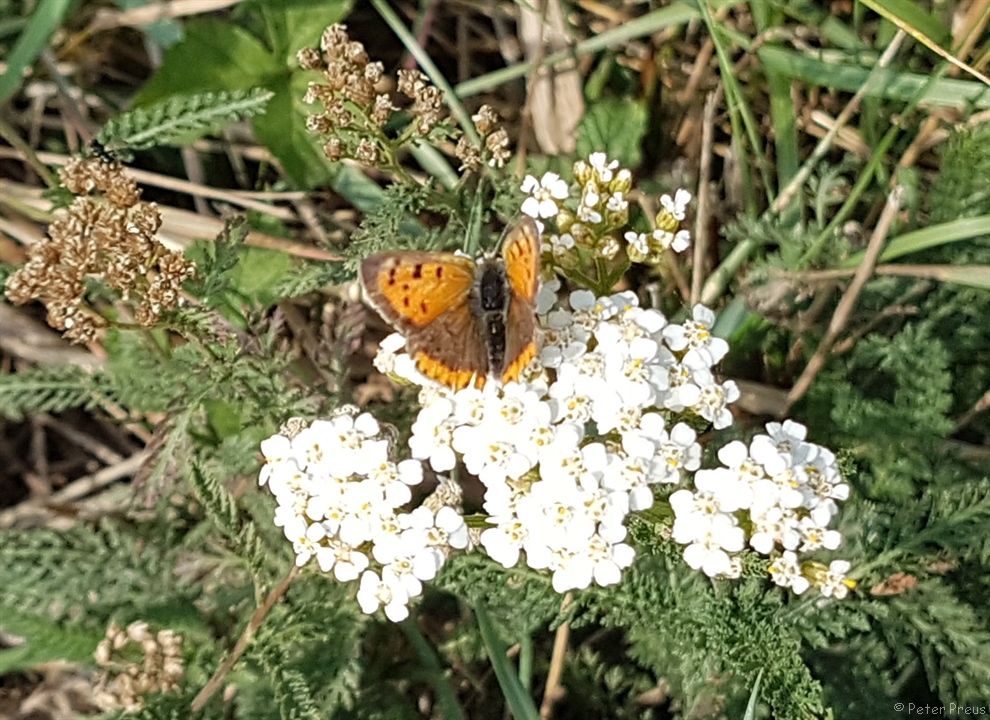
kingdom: Animalia
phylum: Arthropoda
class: Insecta
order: Lepidoptera
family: Lycaenidae
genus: Lycaena
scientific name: Lycaena phlaeas
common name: Small copper
